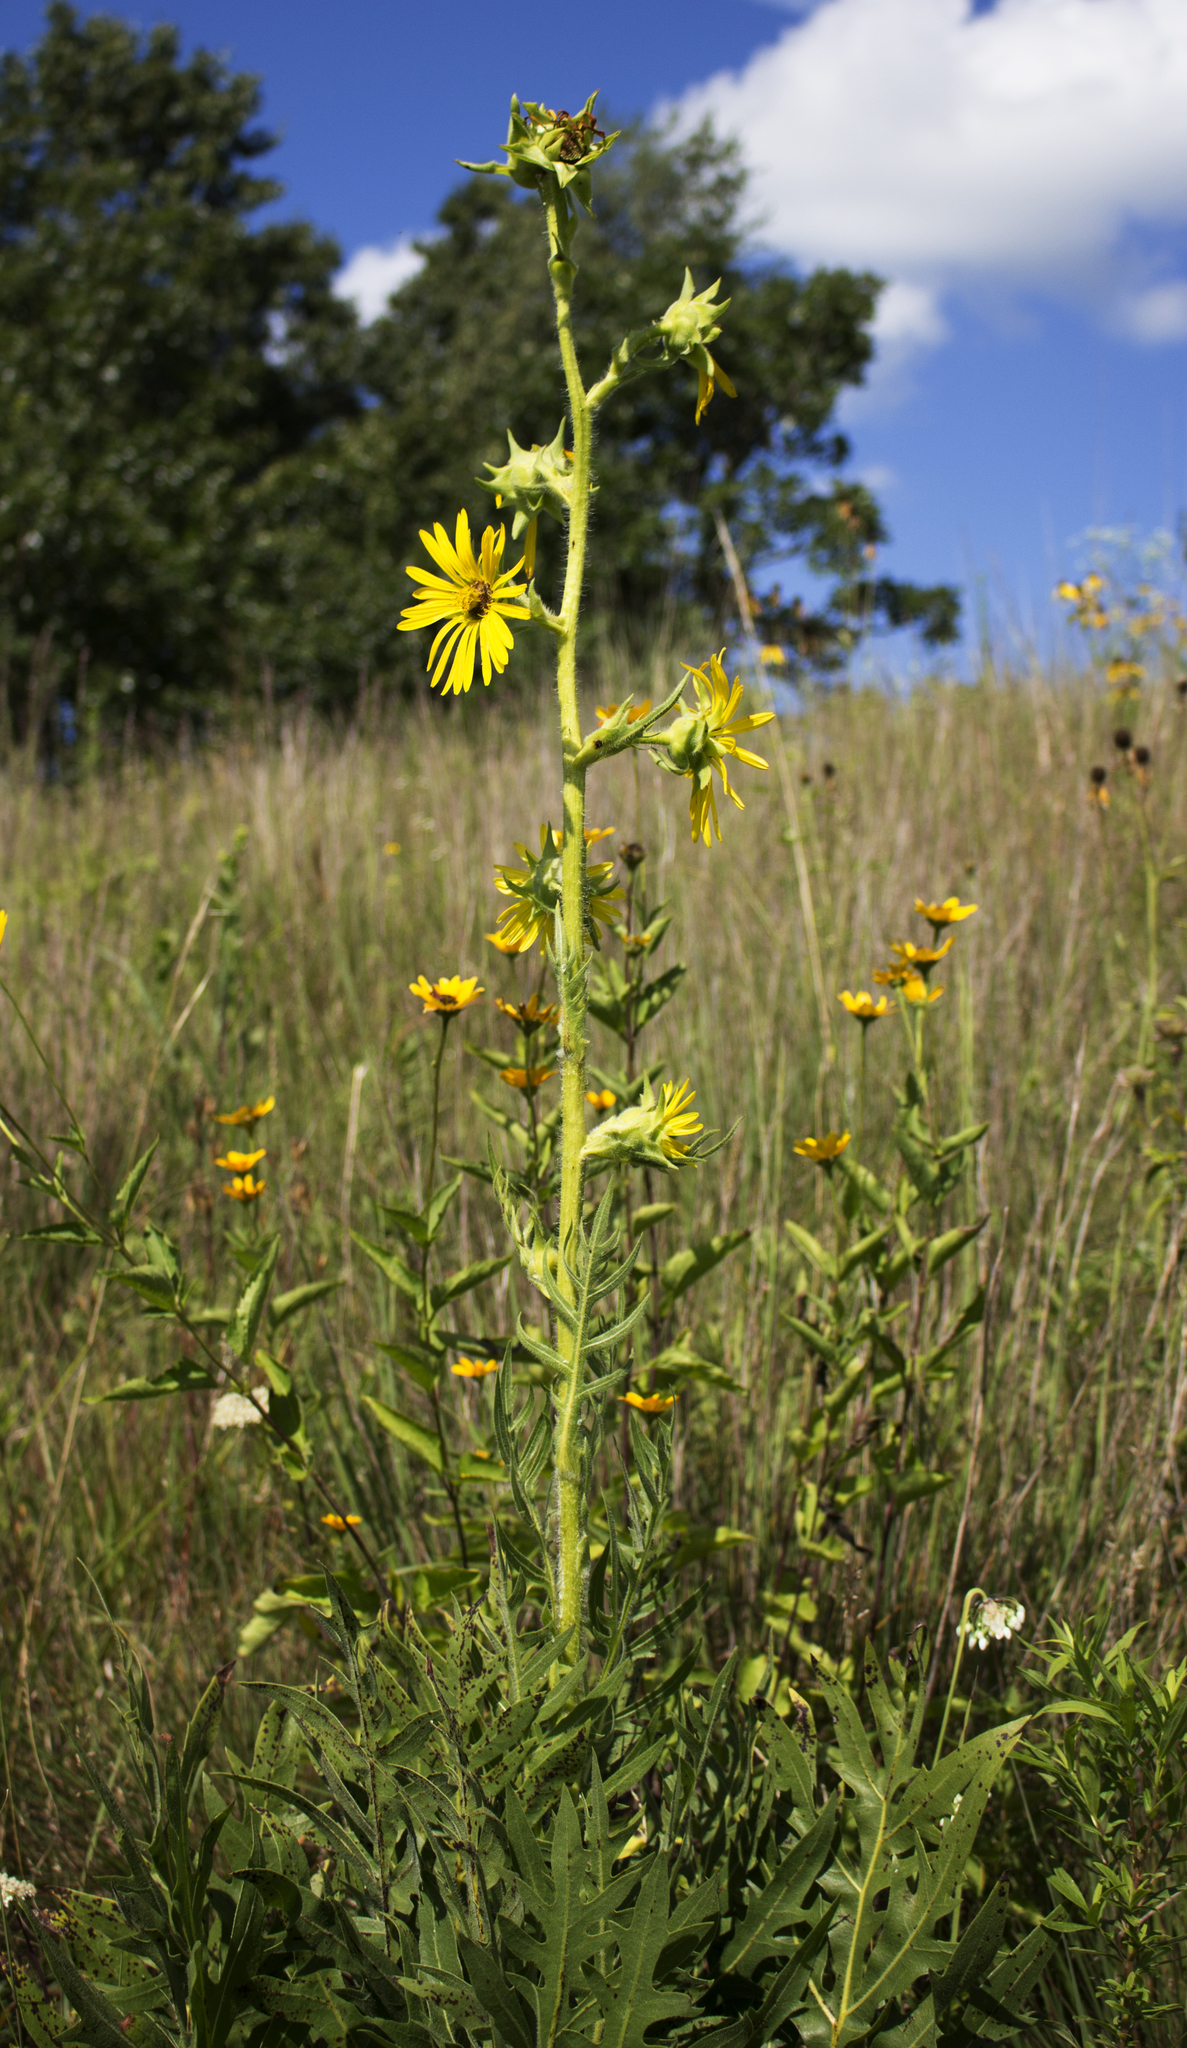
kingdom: Plantae
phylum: Tracheophyta
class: Magnoliopsida
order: Asterales
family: Asteraceae
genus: Silphium
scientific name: Silphium laciniatum
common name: Polarplant
